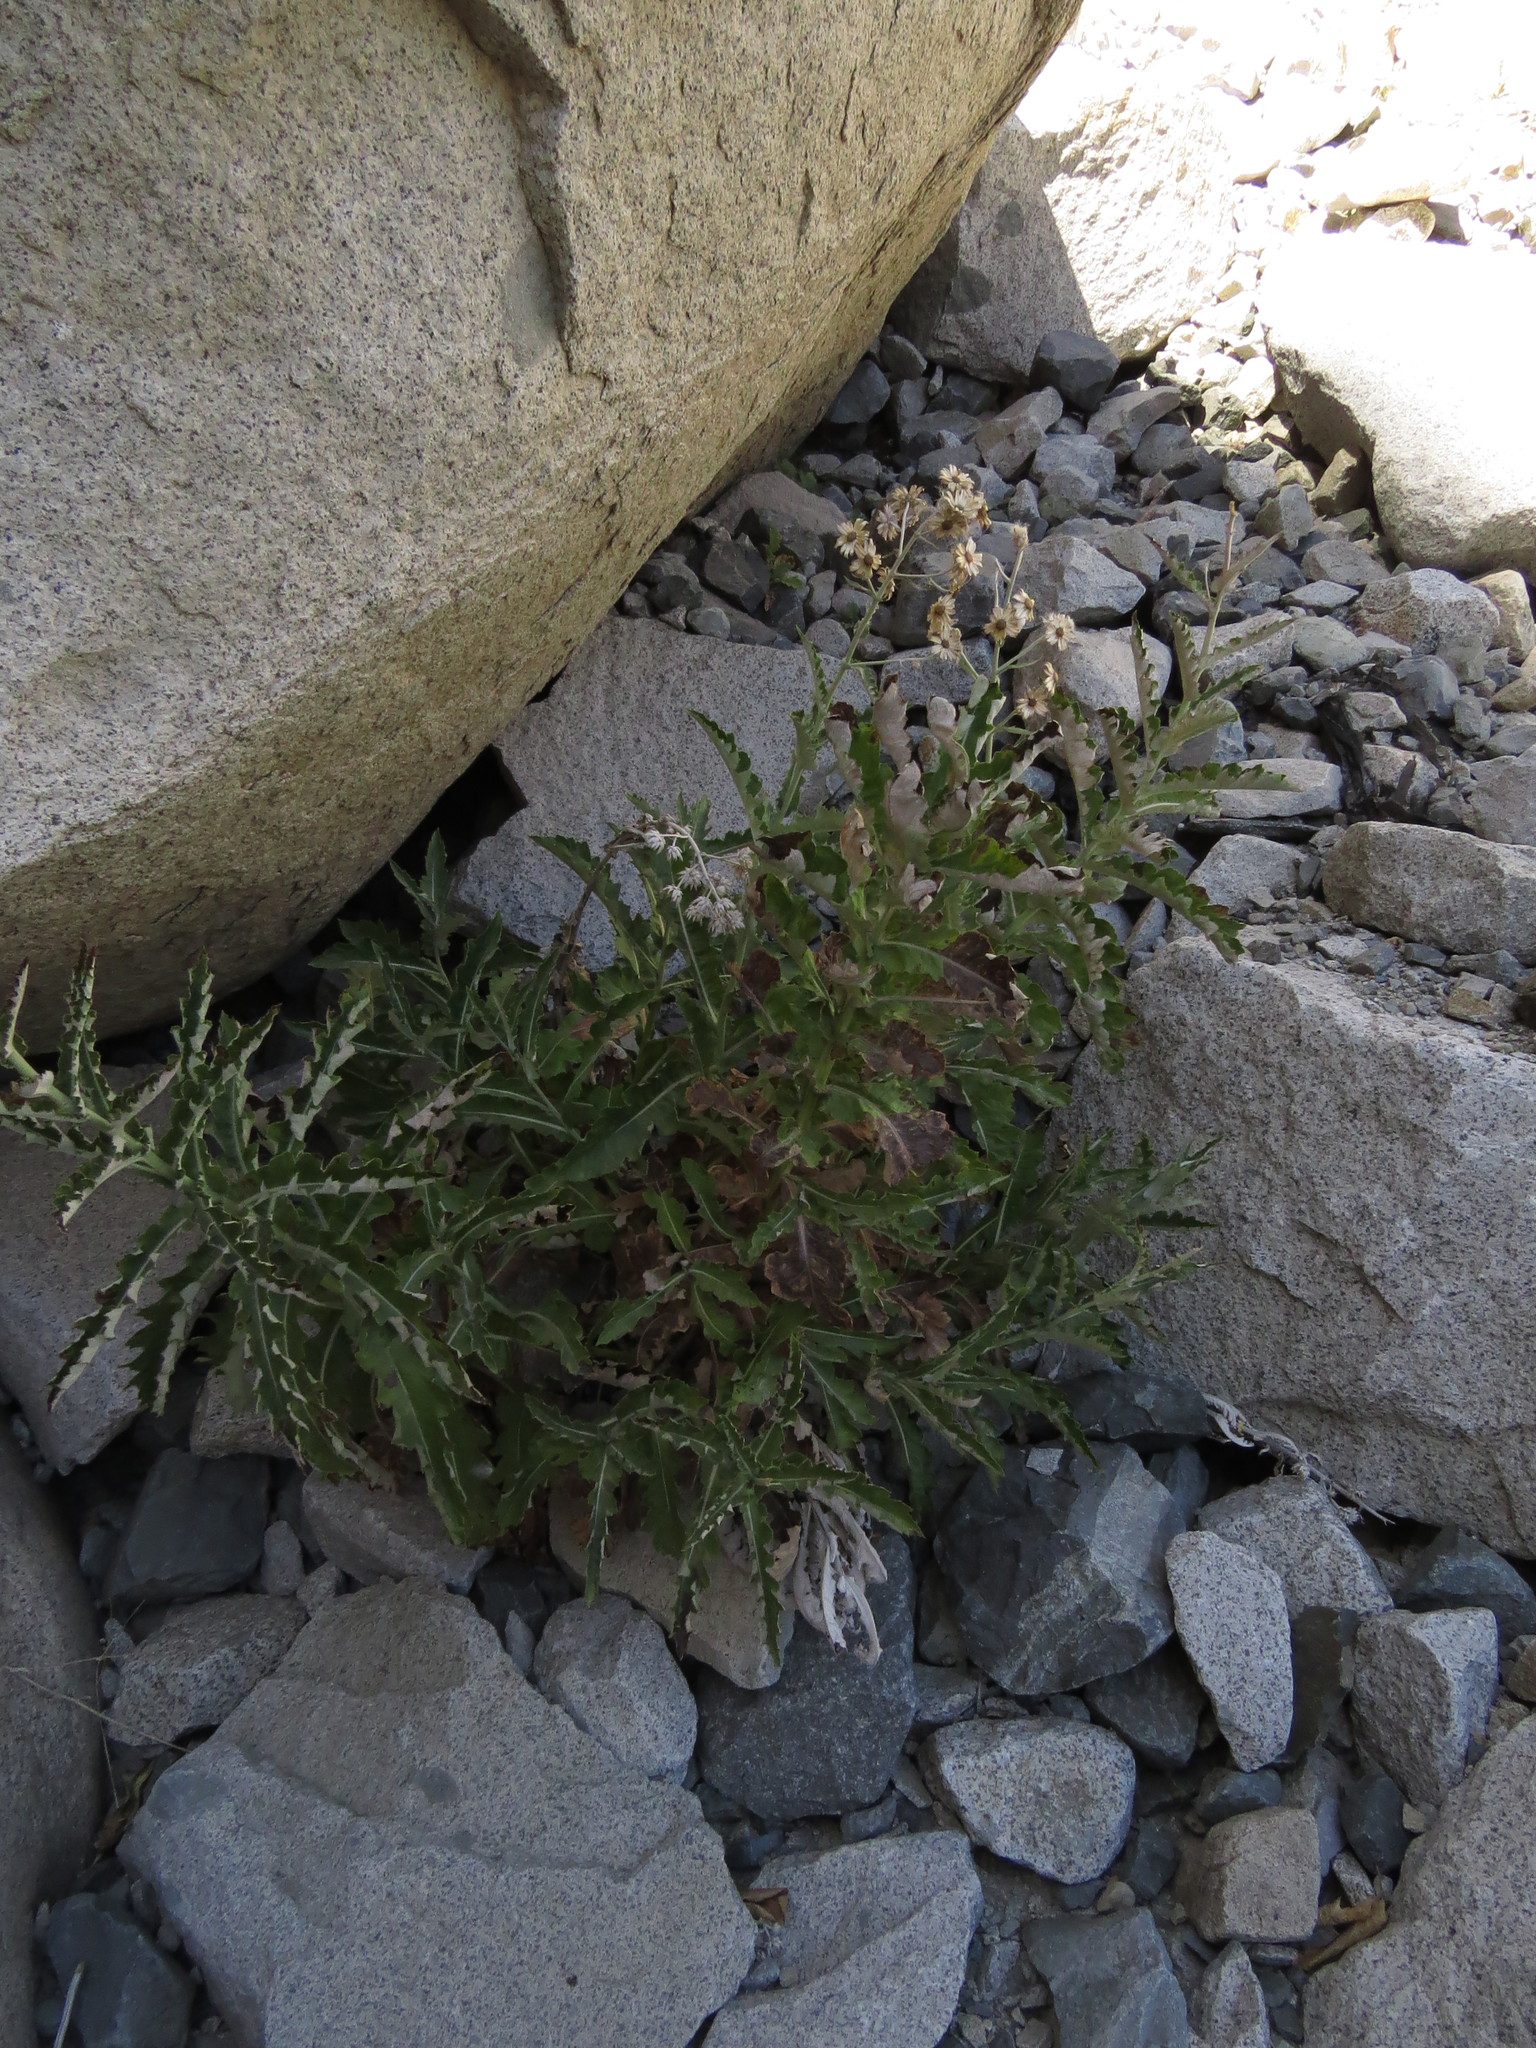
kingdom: Plantae
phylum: Tracheophyta
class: Magnoliopsida
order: Asterales
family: Asteraceae
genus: Leucheria
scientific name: Leucheria floribunda
